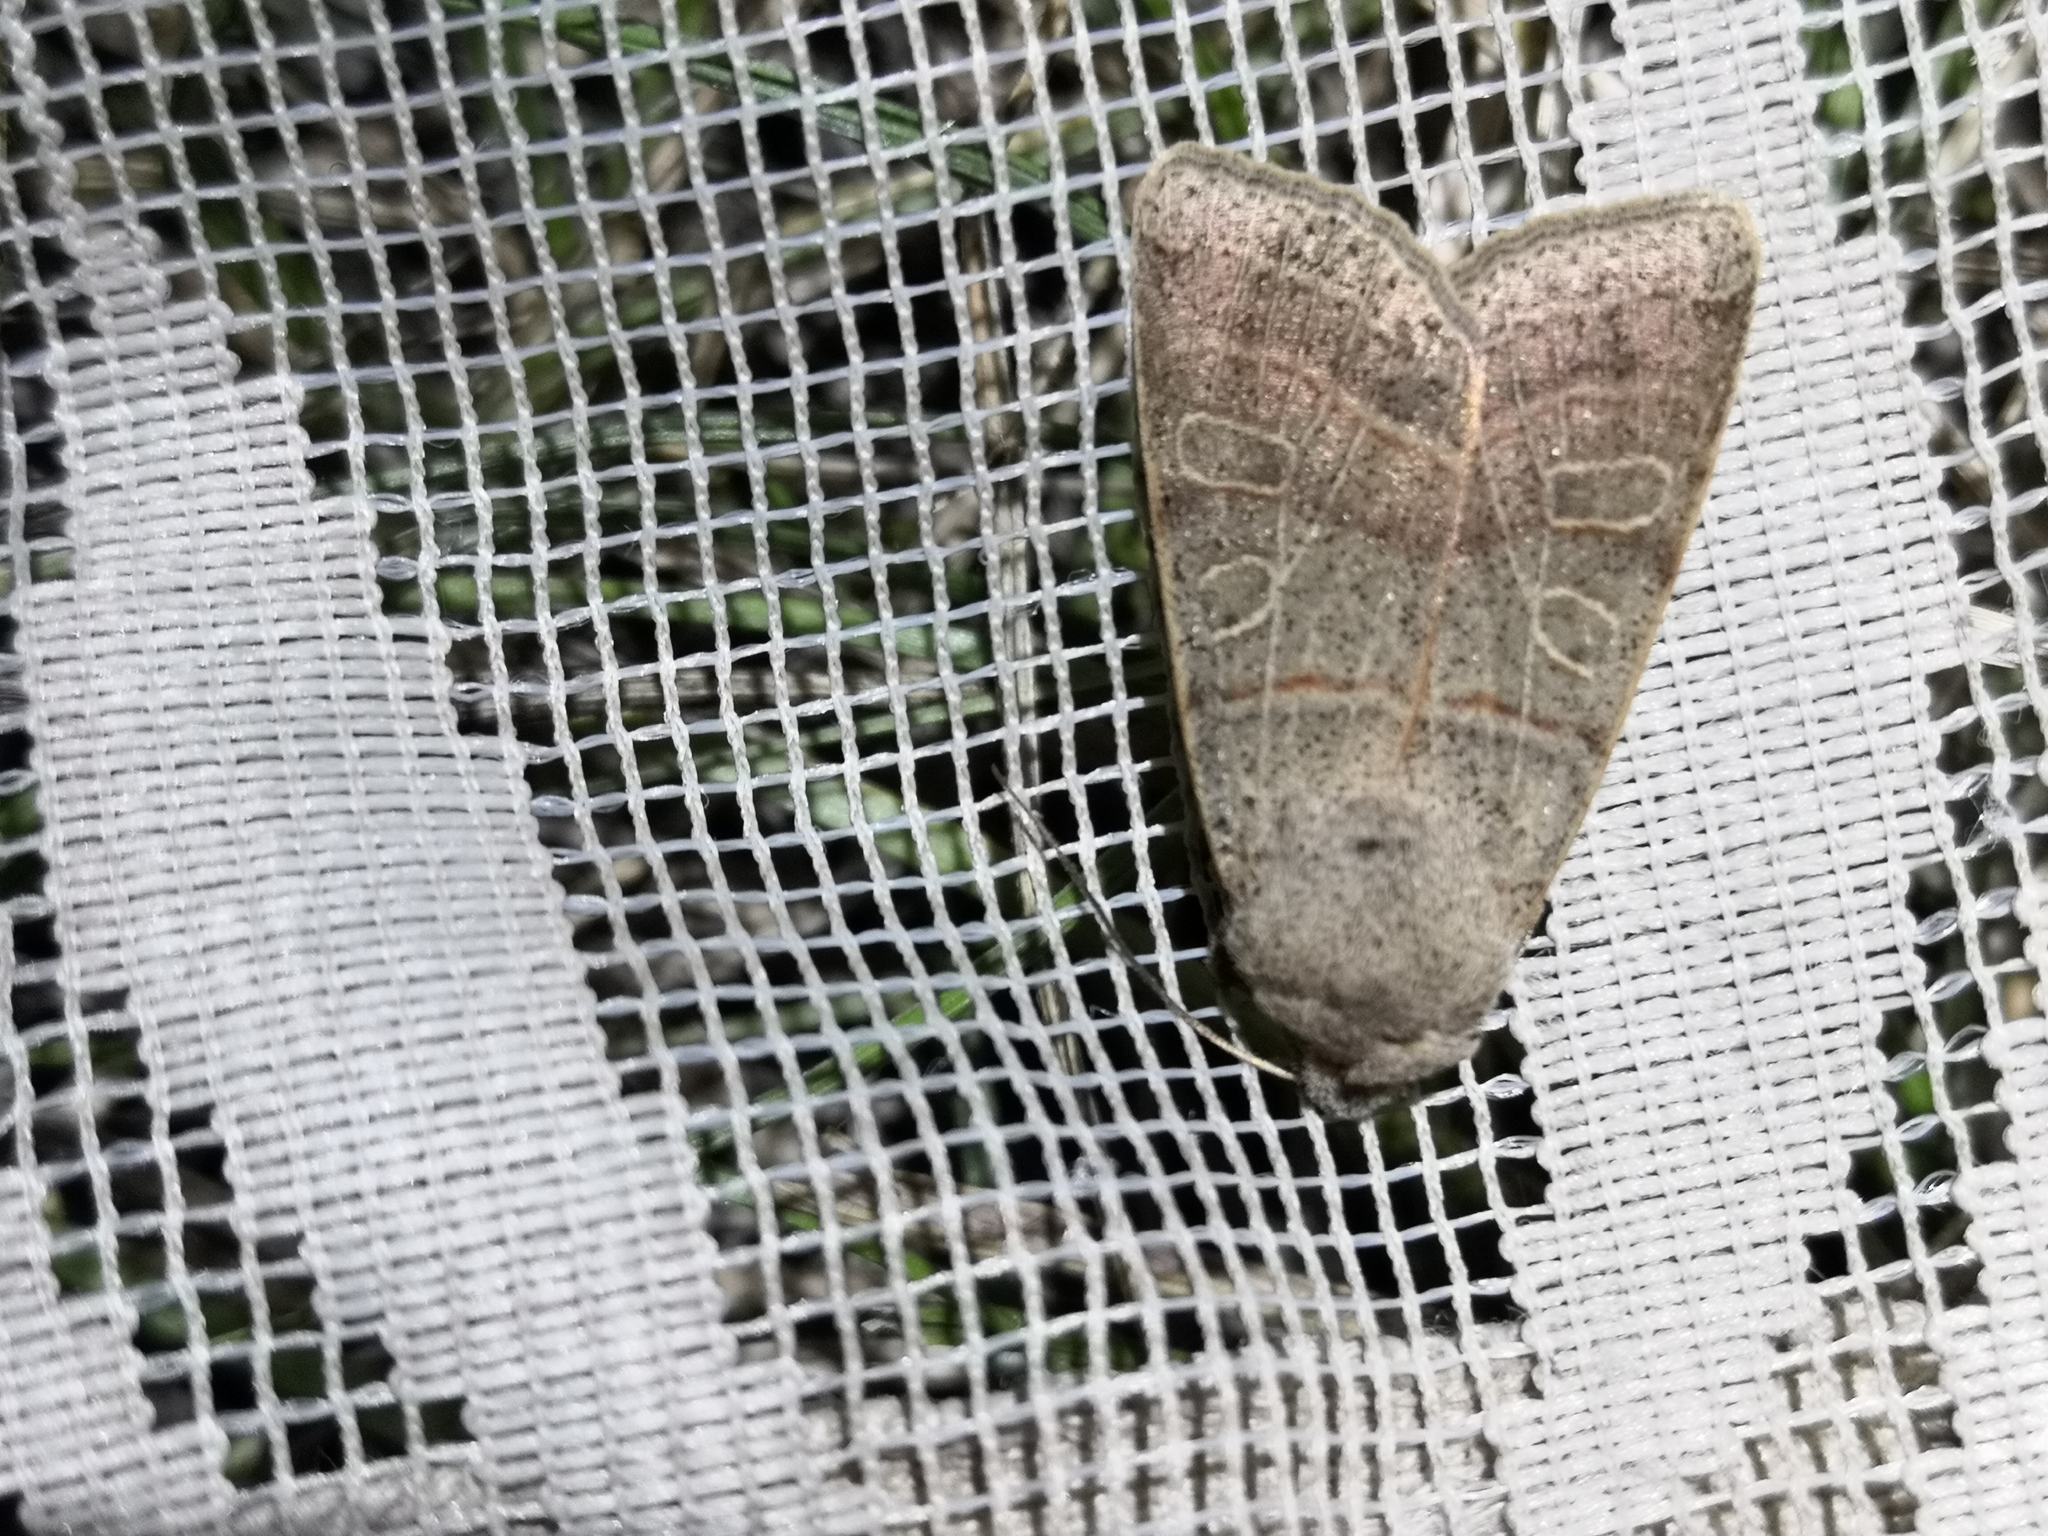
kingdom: Animalia
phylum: Arthropoda
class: Insecta
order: Lepidoptera
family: Noctuidae
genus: Agrochola
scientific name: Agrochola humilis
